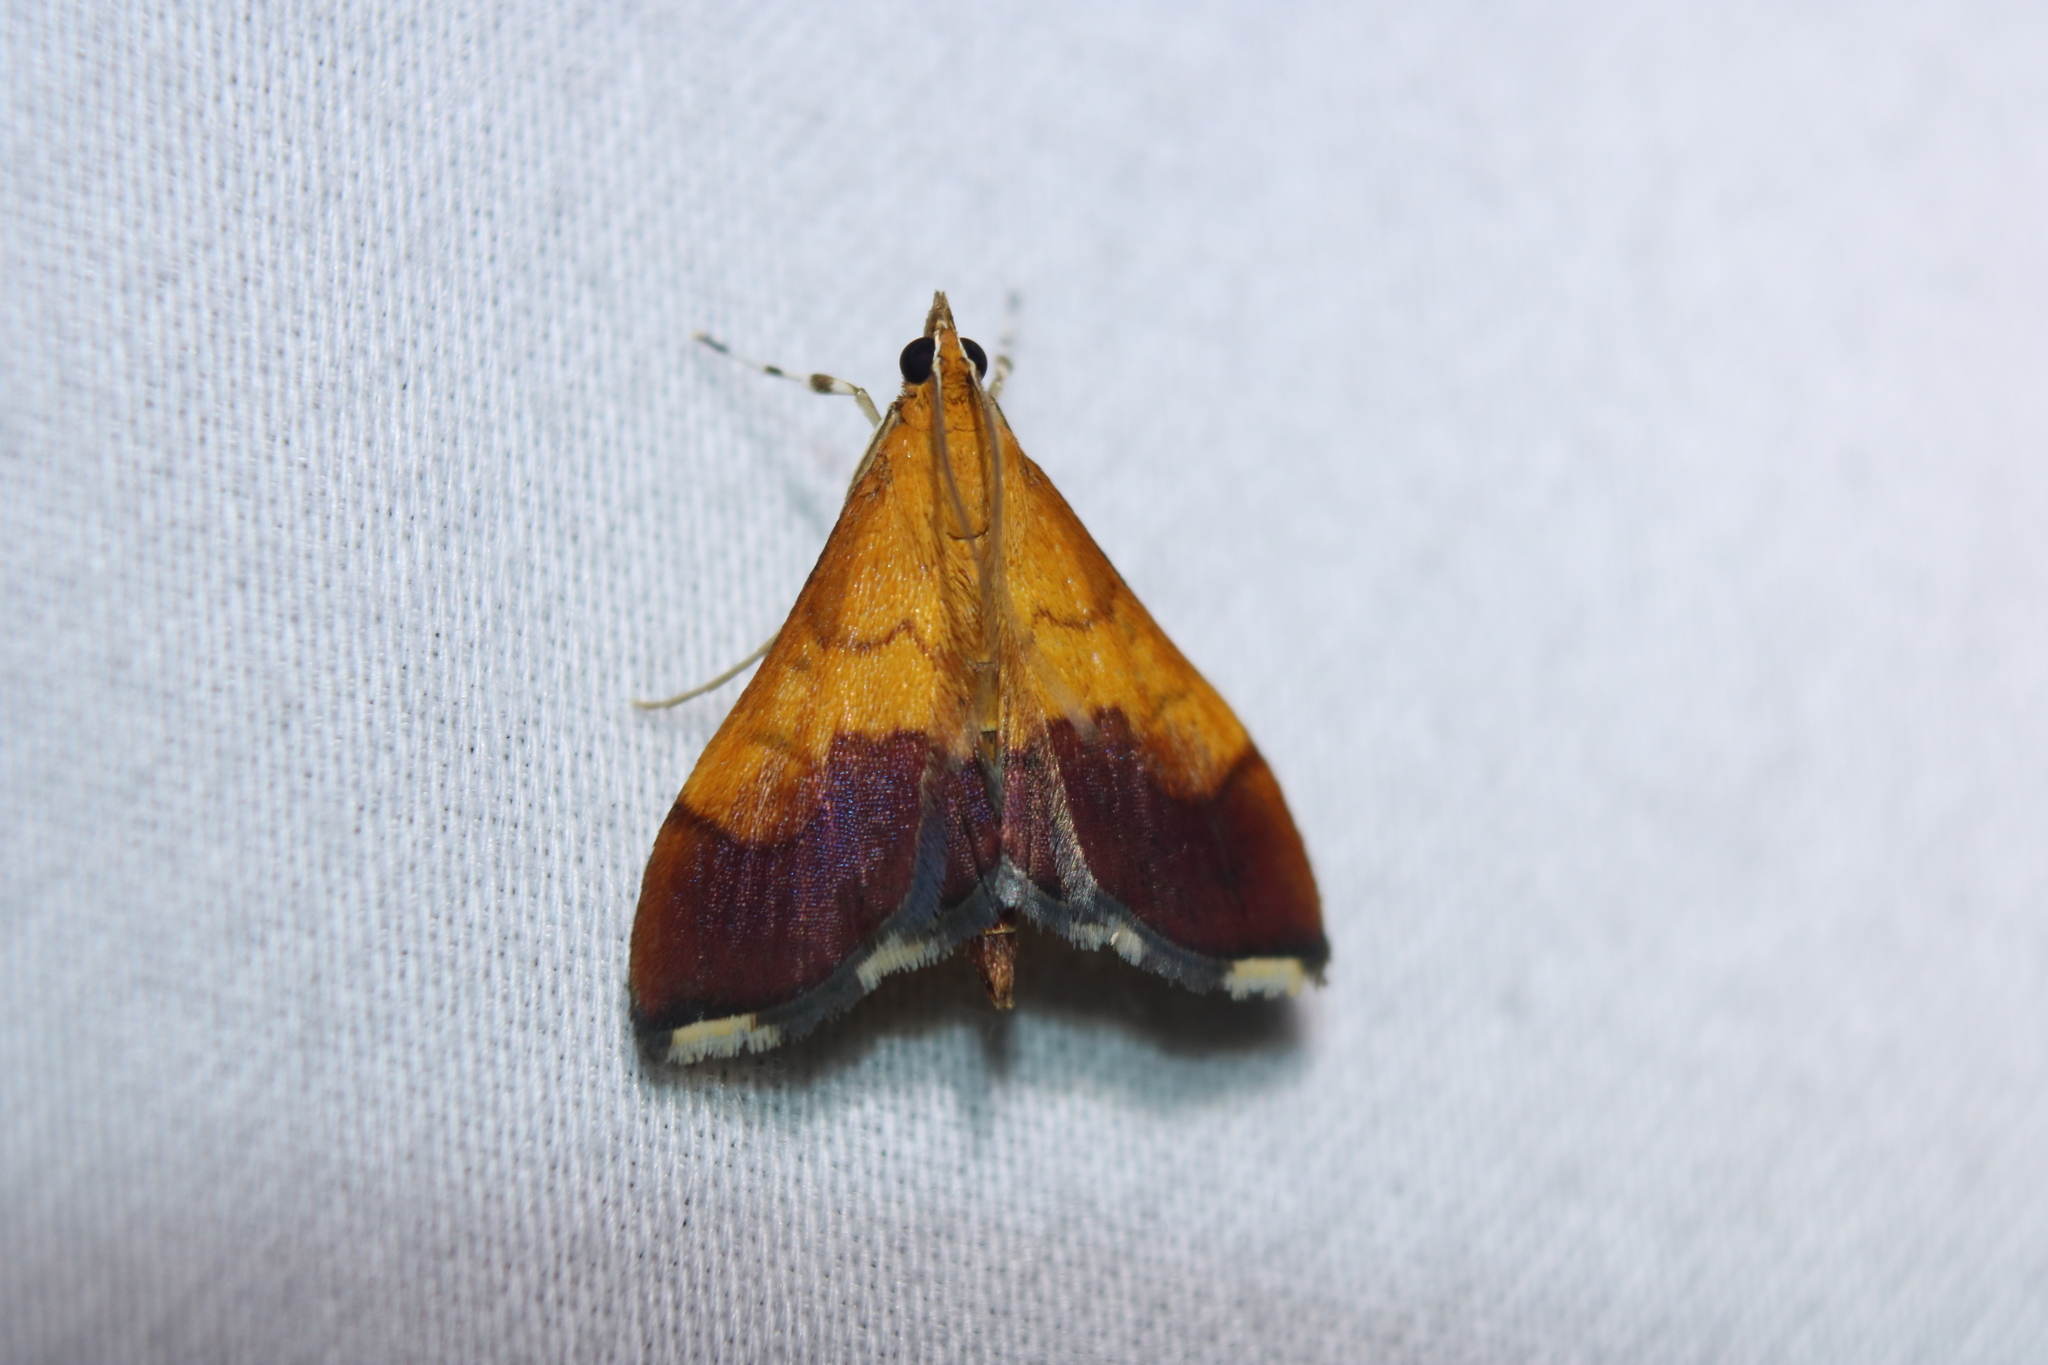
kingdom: Animalia
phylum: Arthropoda
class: Insecta
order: Lepidoptera
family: Crambidae
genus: Pyrausta
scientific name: Pyrausta bicoloralis
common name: Bicolored pyrausta moth
